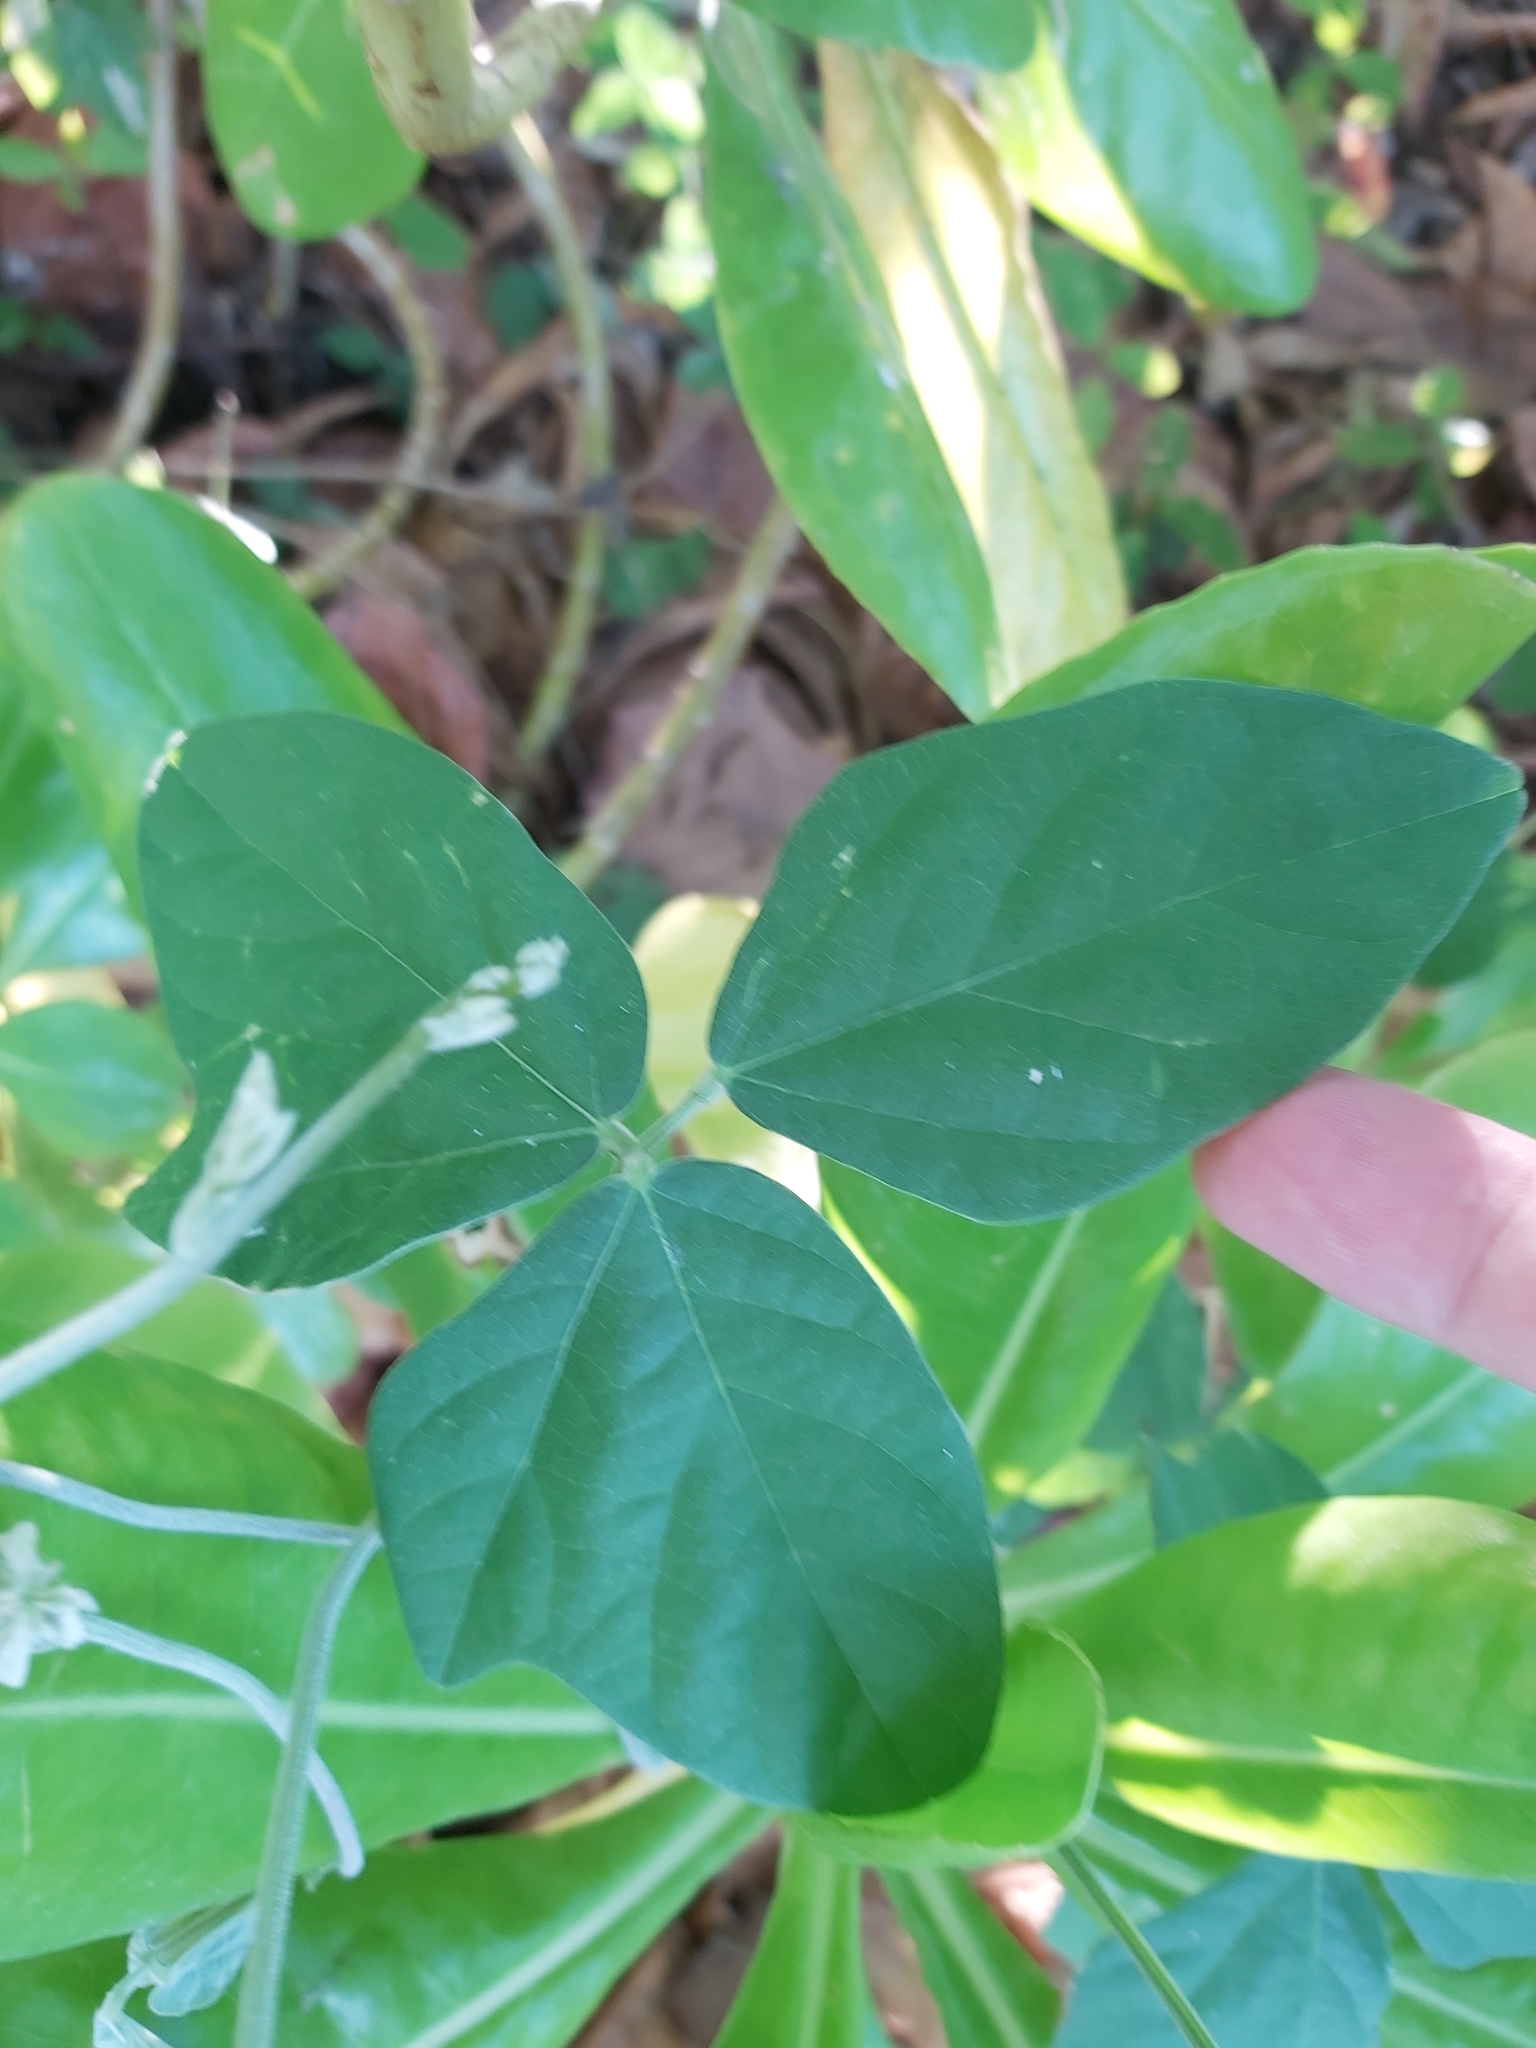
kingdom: Plantae
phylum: Tracheophyta
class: Magnoliopsida
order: Fabales
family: Fabaceae
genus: Macroptilium
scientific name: Macroptilium atropurpureum
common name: Purple bushbean
